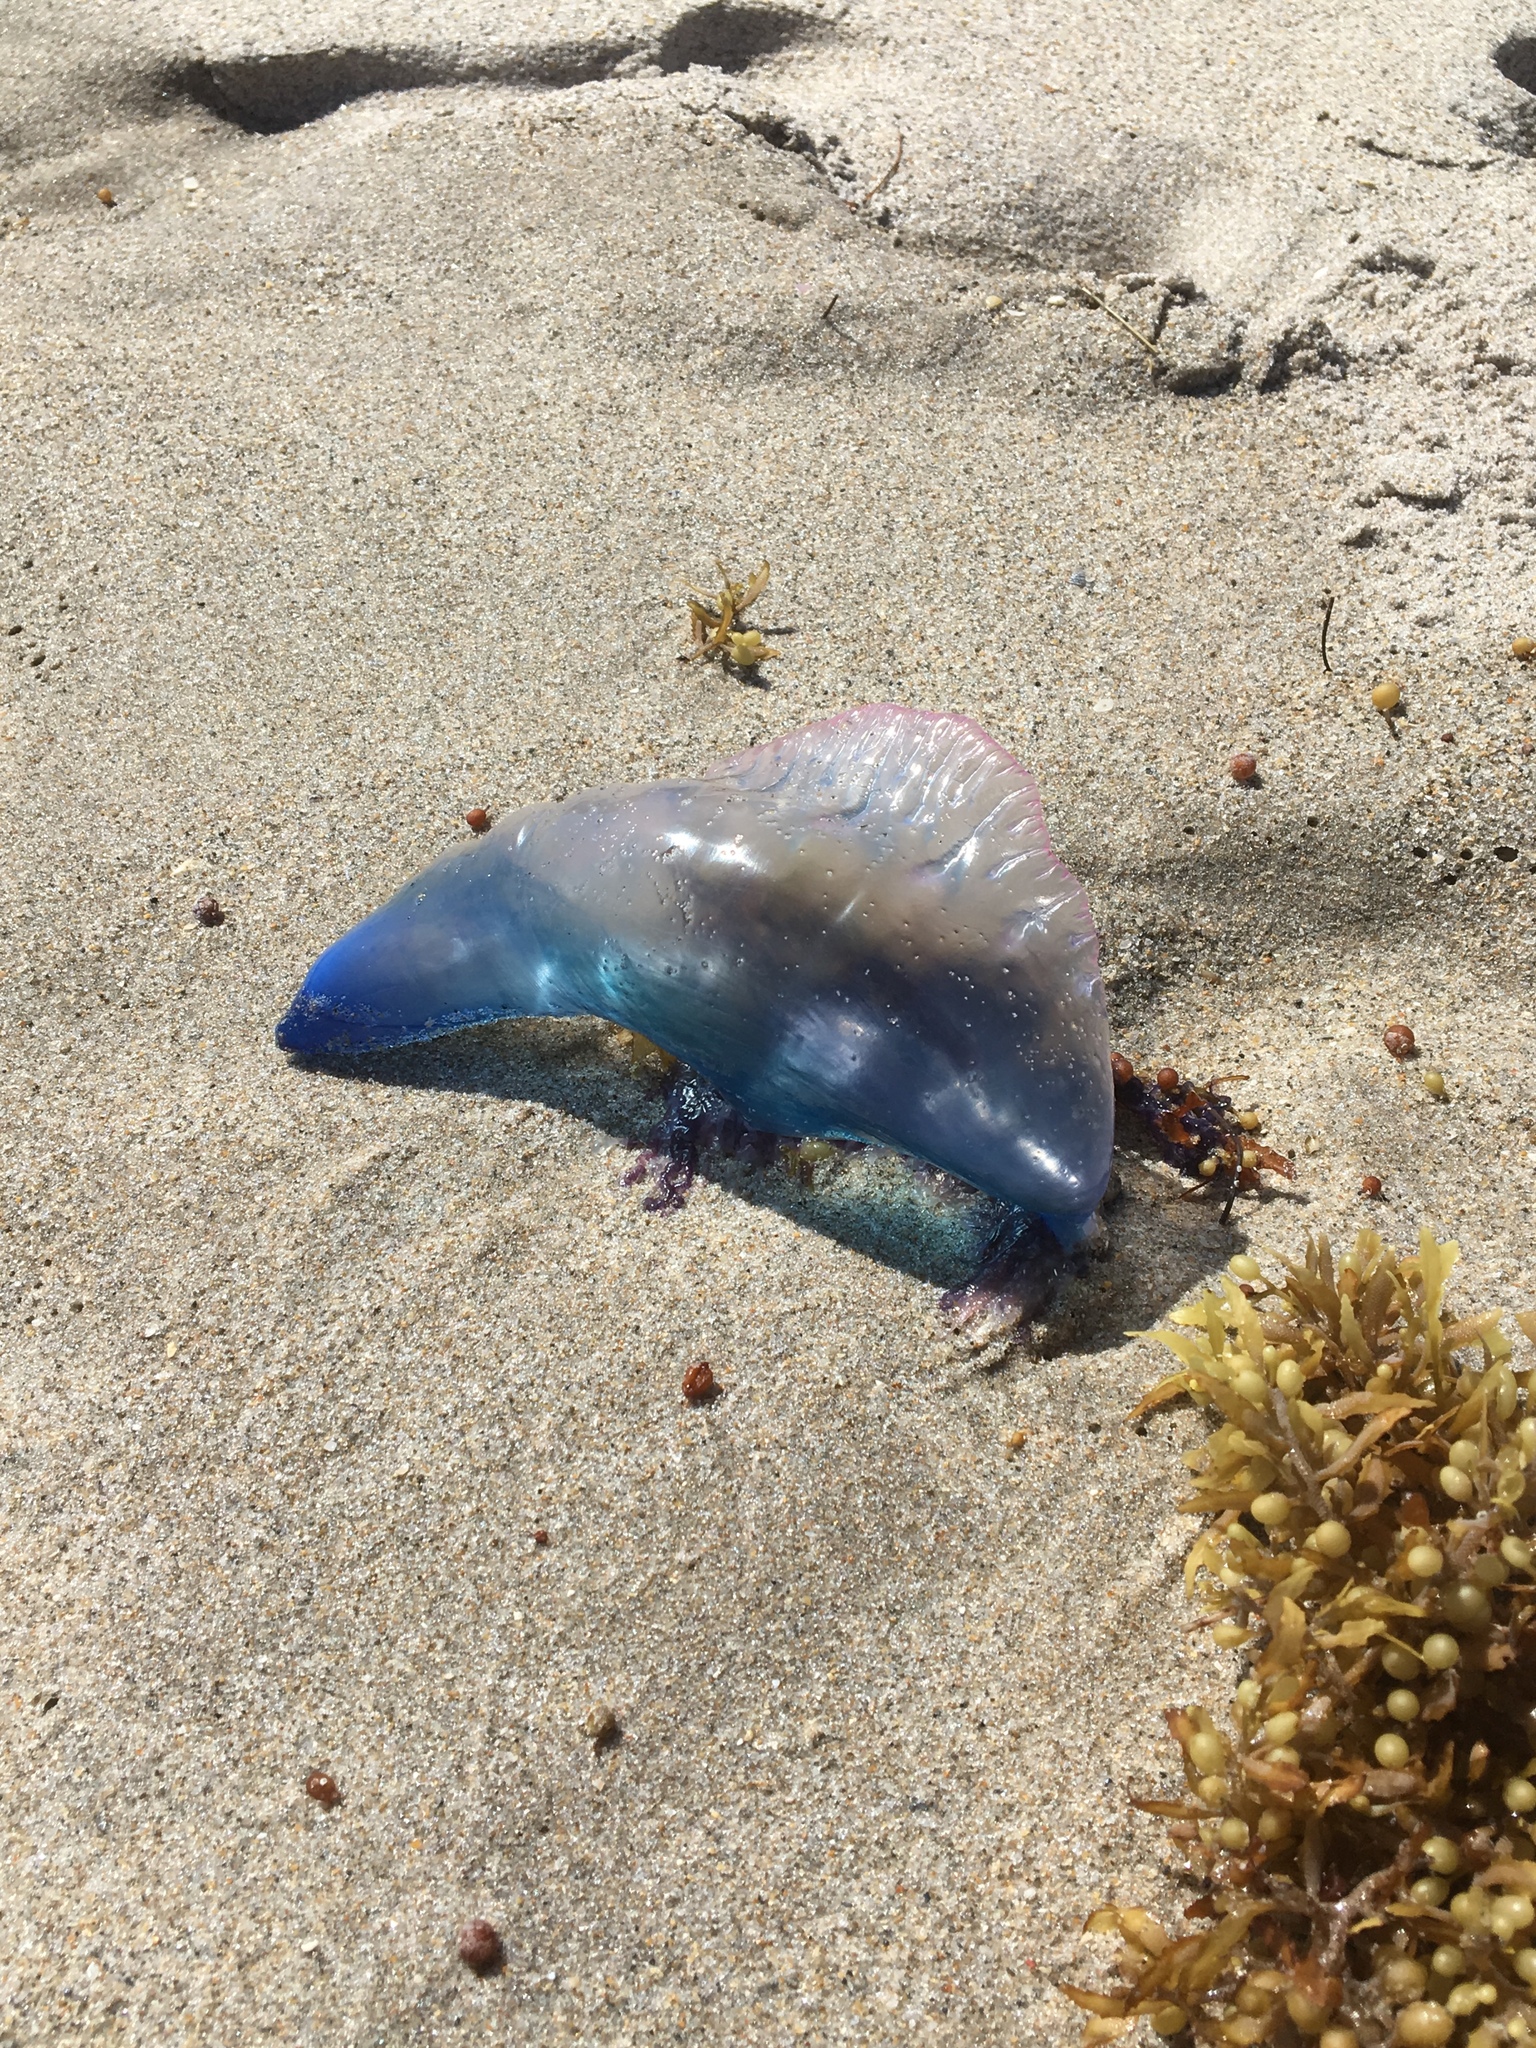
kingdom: Animalia
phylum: Cnidaria
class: Hydrozoa
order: Siphonophorae
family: Physaliidae
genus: Physalia
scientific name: Physalia physalis
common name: Portuguese man-of-war
